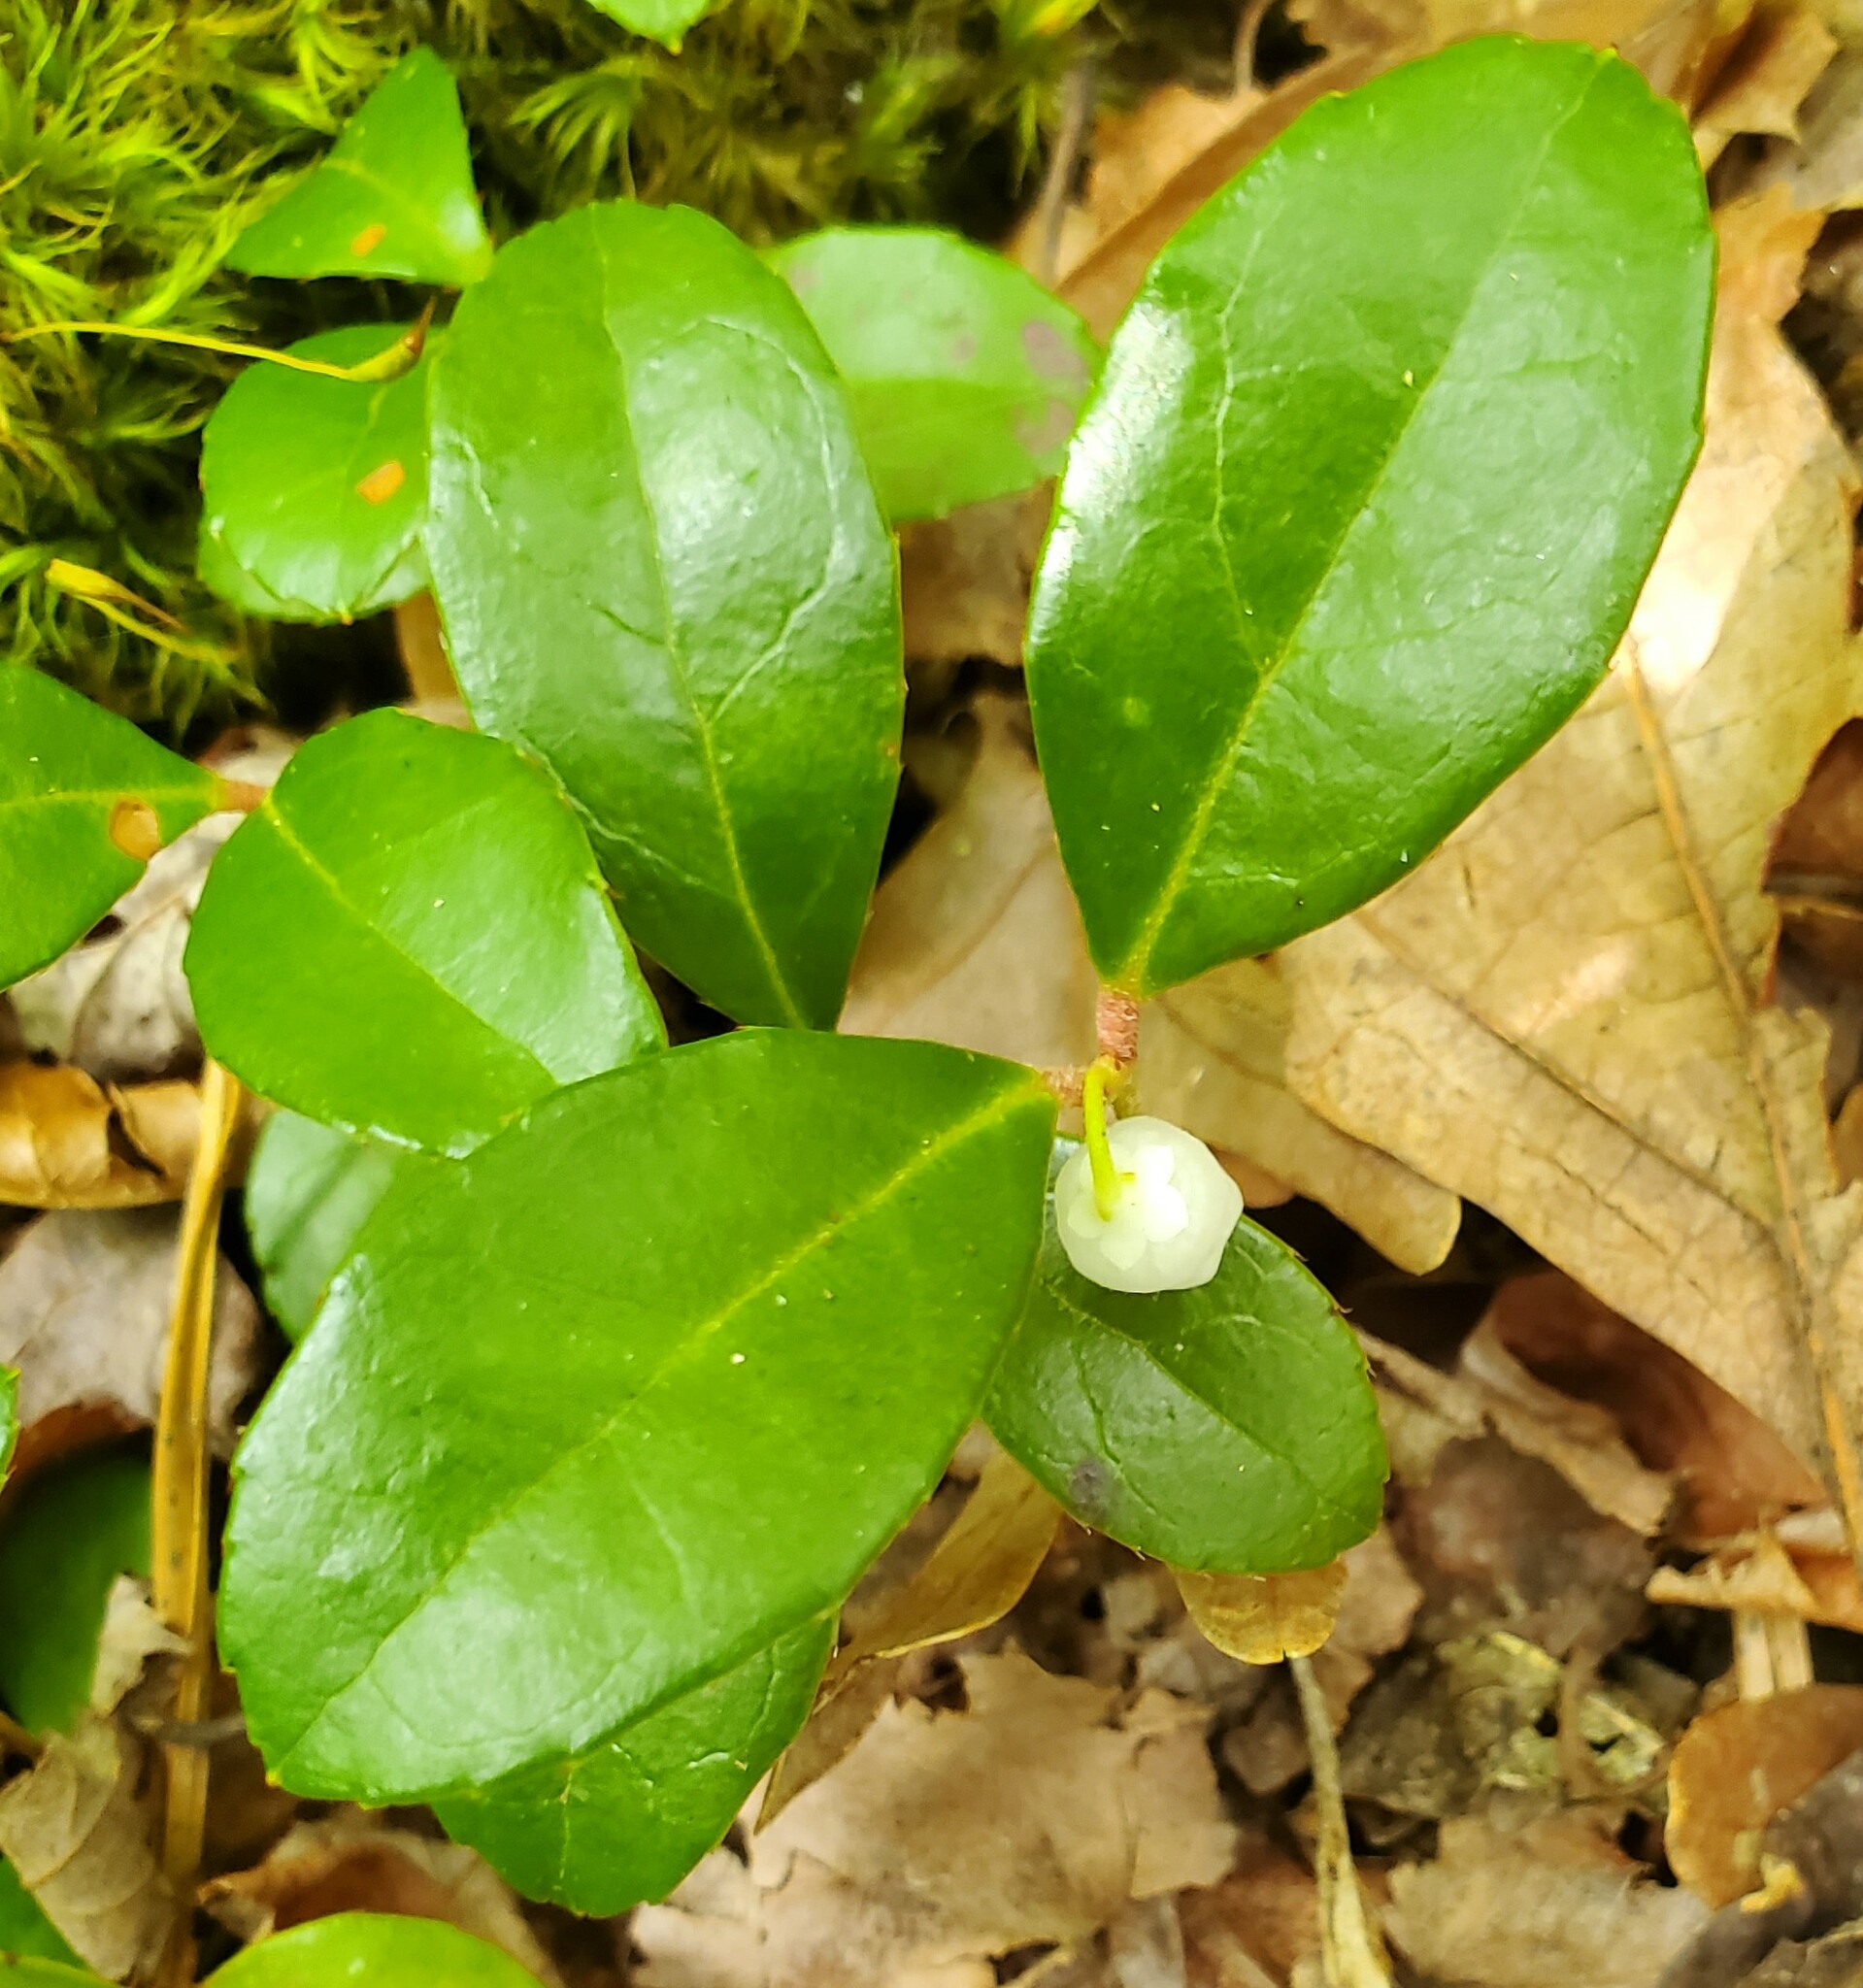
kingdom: Plantae
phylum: Tracheophyta
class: Magnoliopsida
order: Ericales
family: Ericaceae
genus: Gaultheria
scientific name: Gaultheria procumbens
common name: Checkerberry
